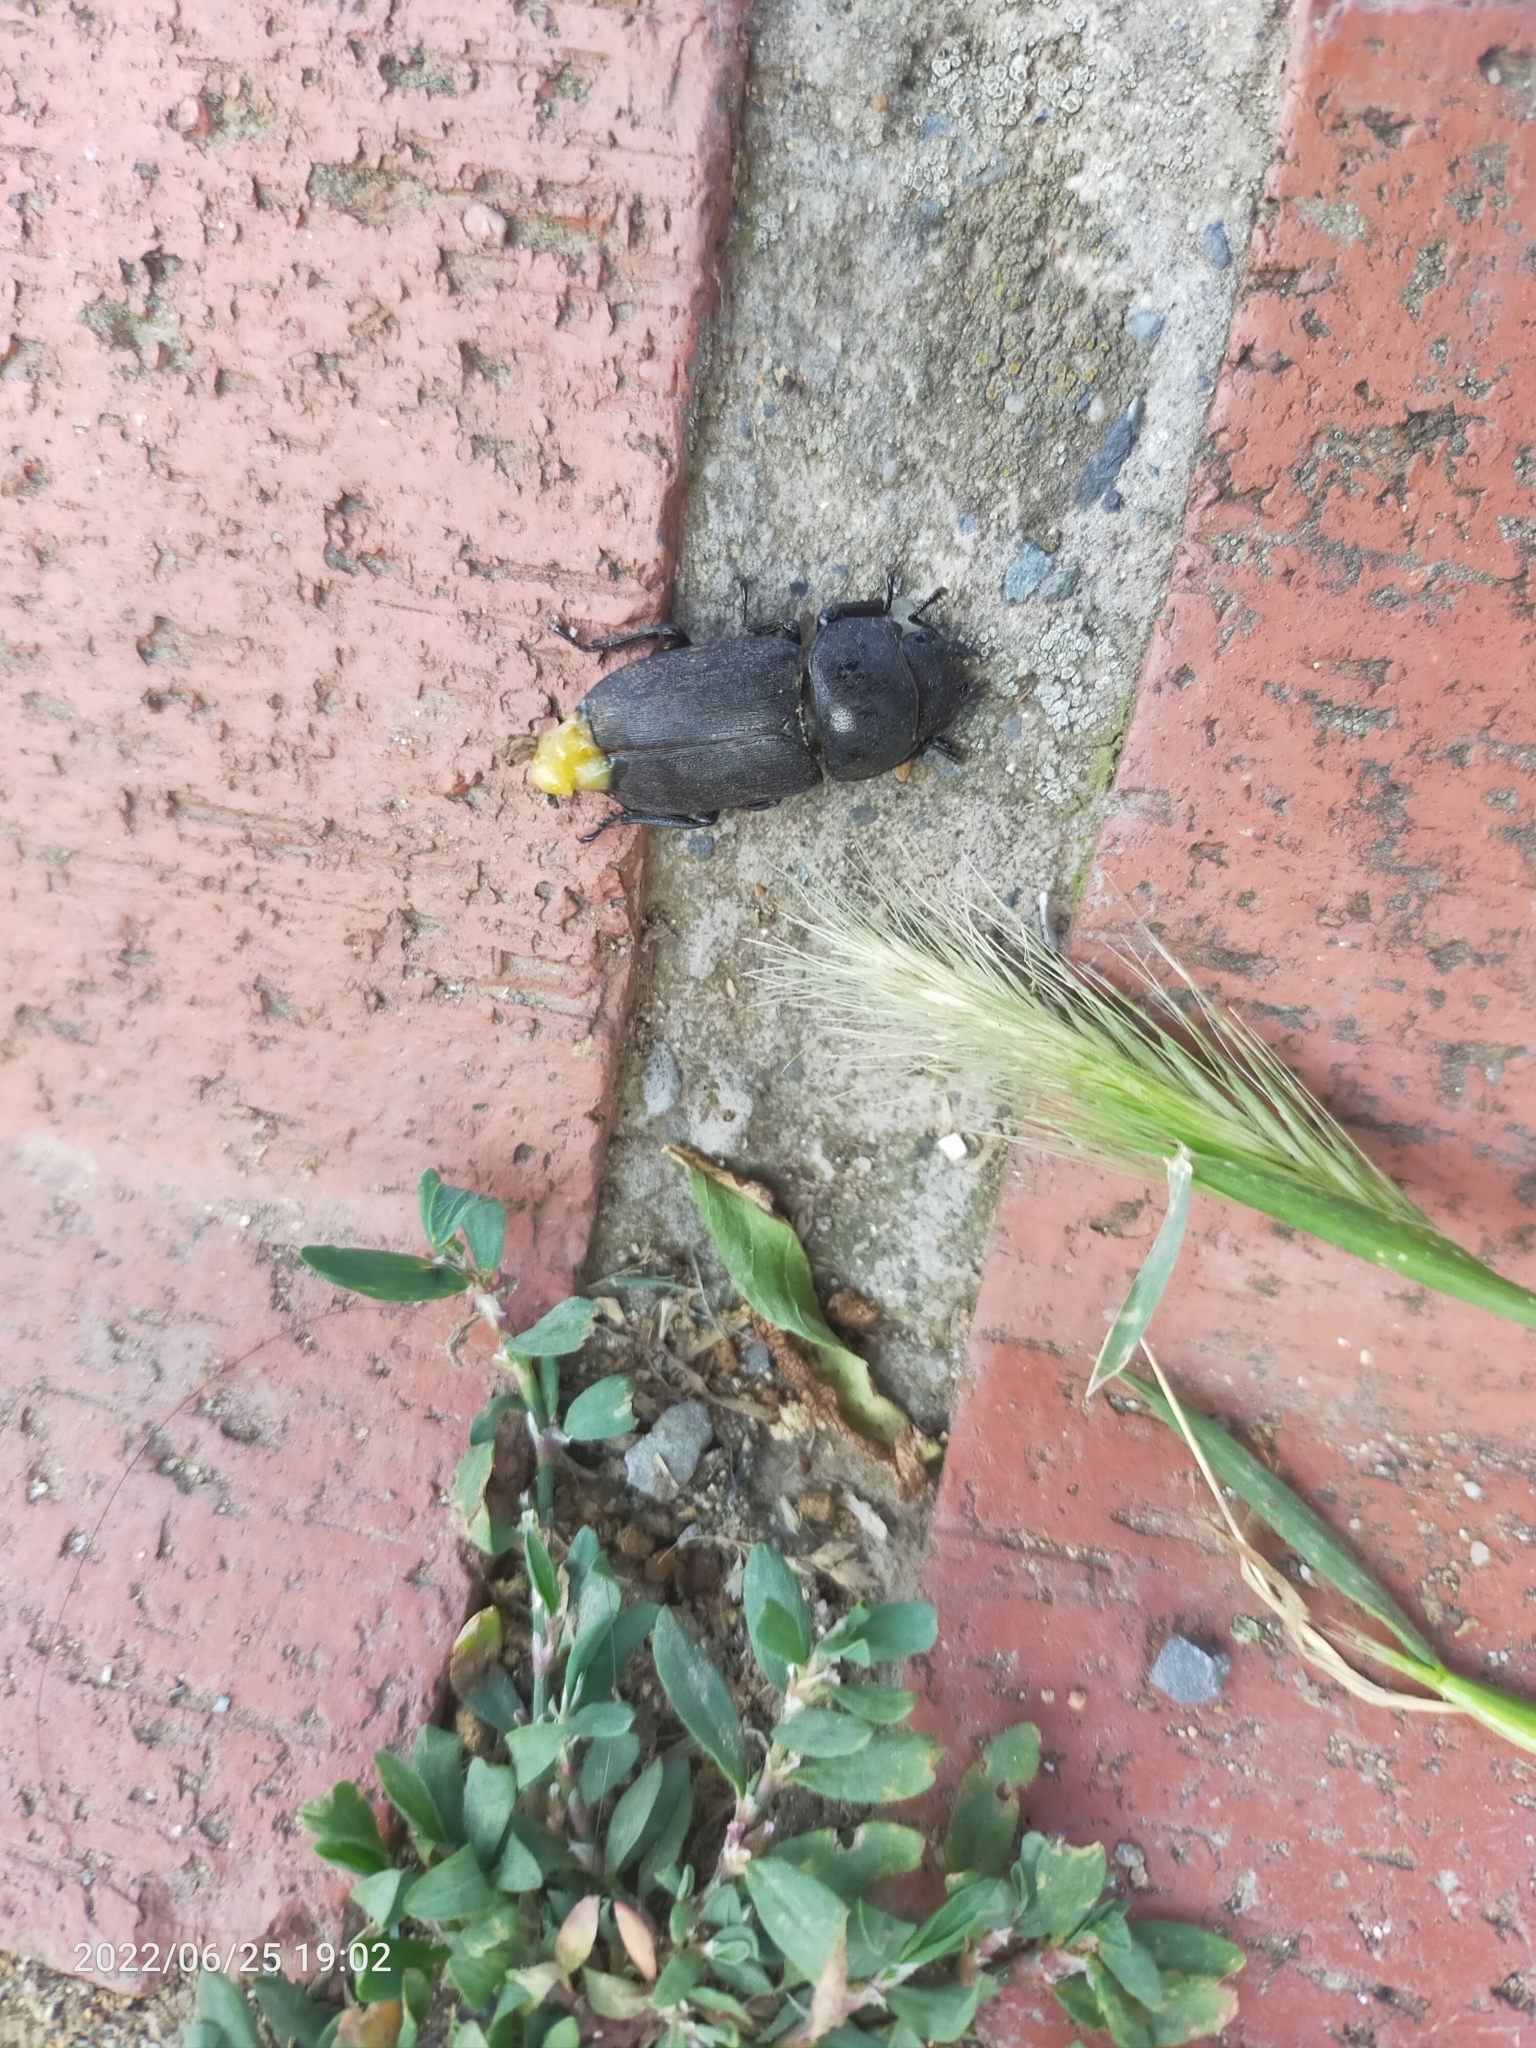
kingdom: Animalia
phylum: Arthropoda
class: Insecta
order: Coleoptera
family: Lucanidae
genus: Dorcus
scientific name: Dorcus parallelipipedus
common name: Lesser stag beetle
